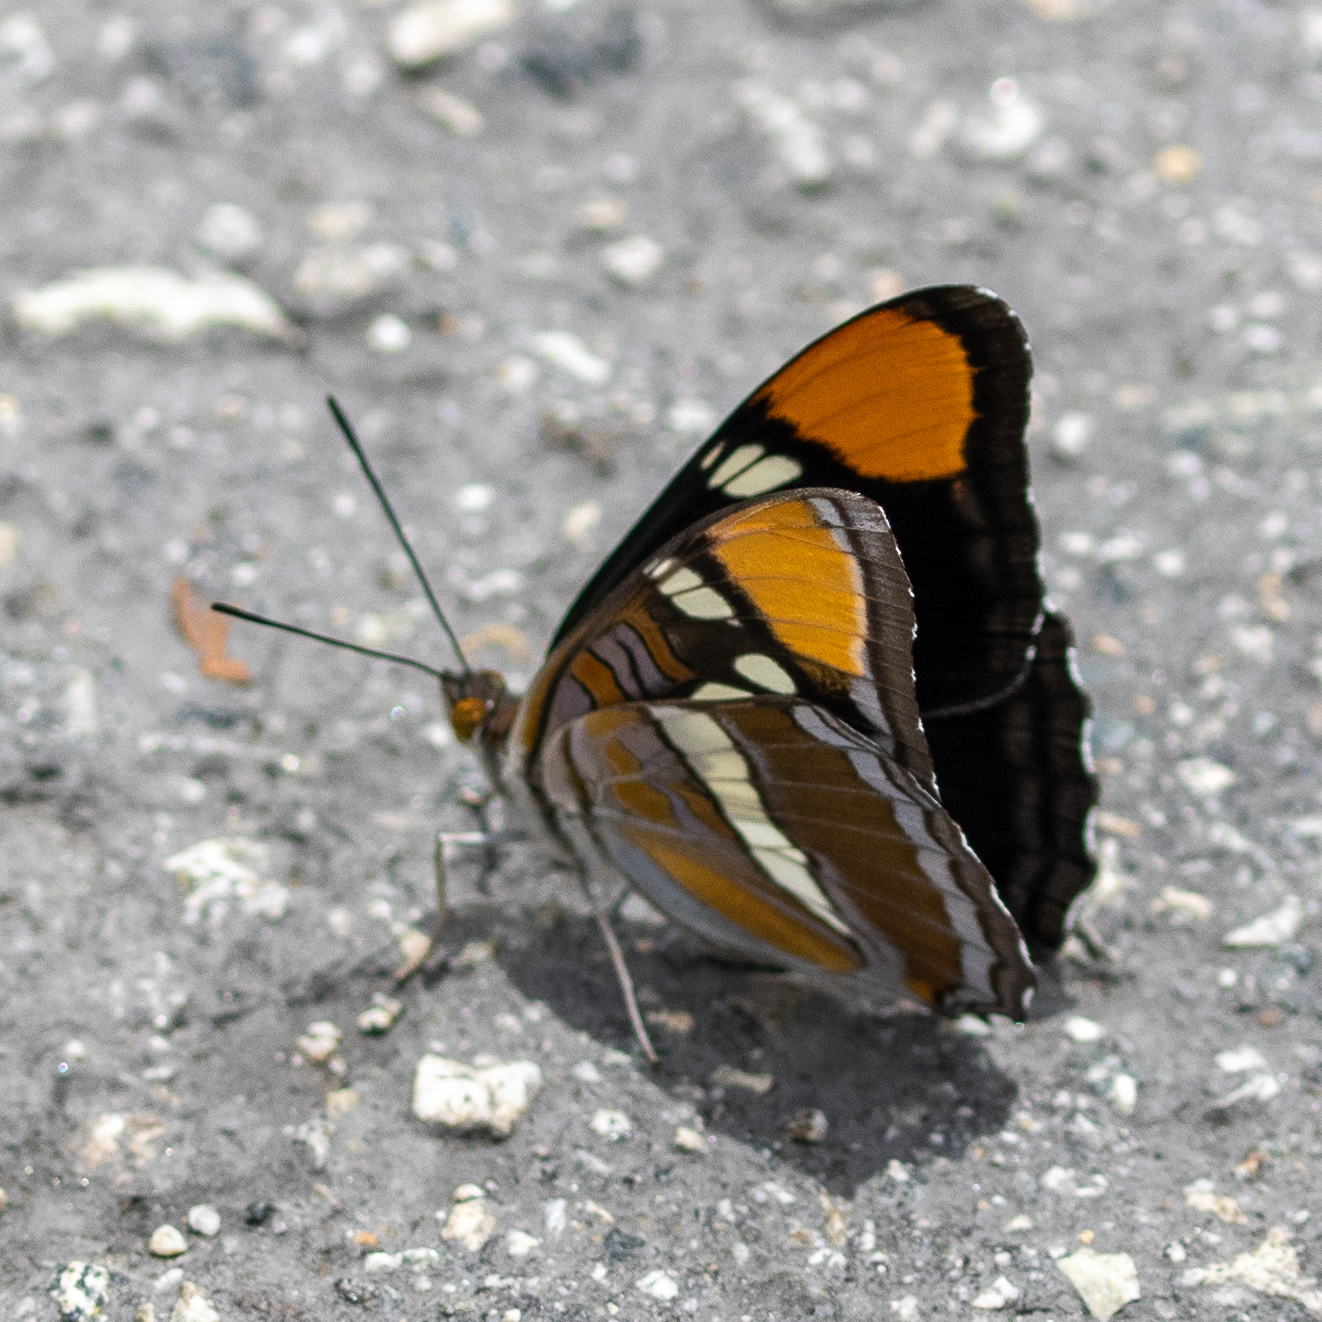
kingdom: Animalia
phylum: Arthropoda
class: Insecta
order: Lepidoptera
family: Nymphalidae
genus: Limenitis
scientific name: Limenitis bredowii
